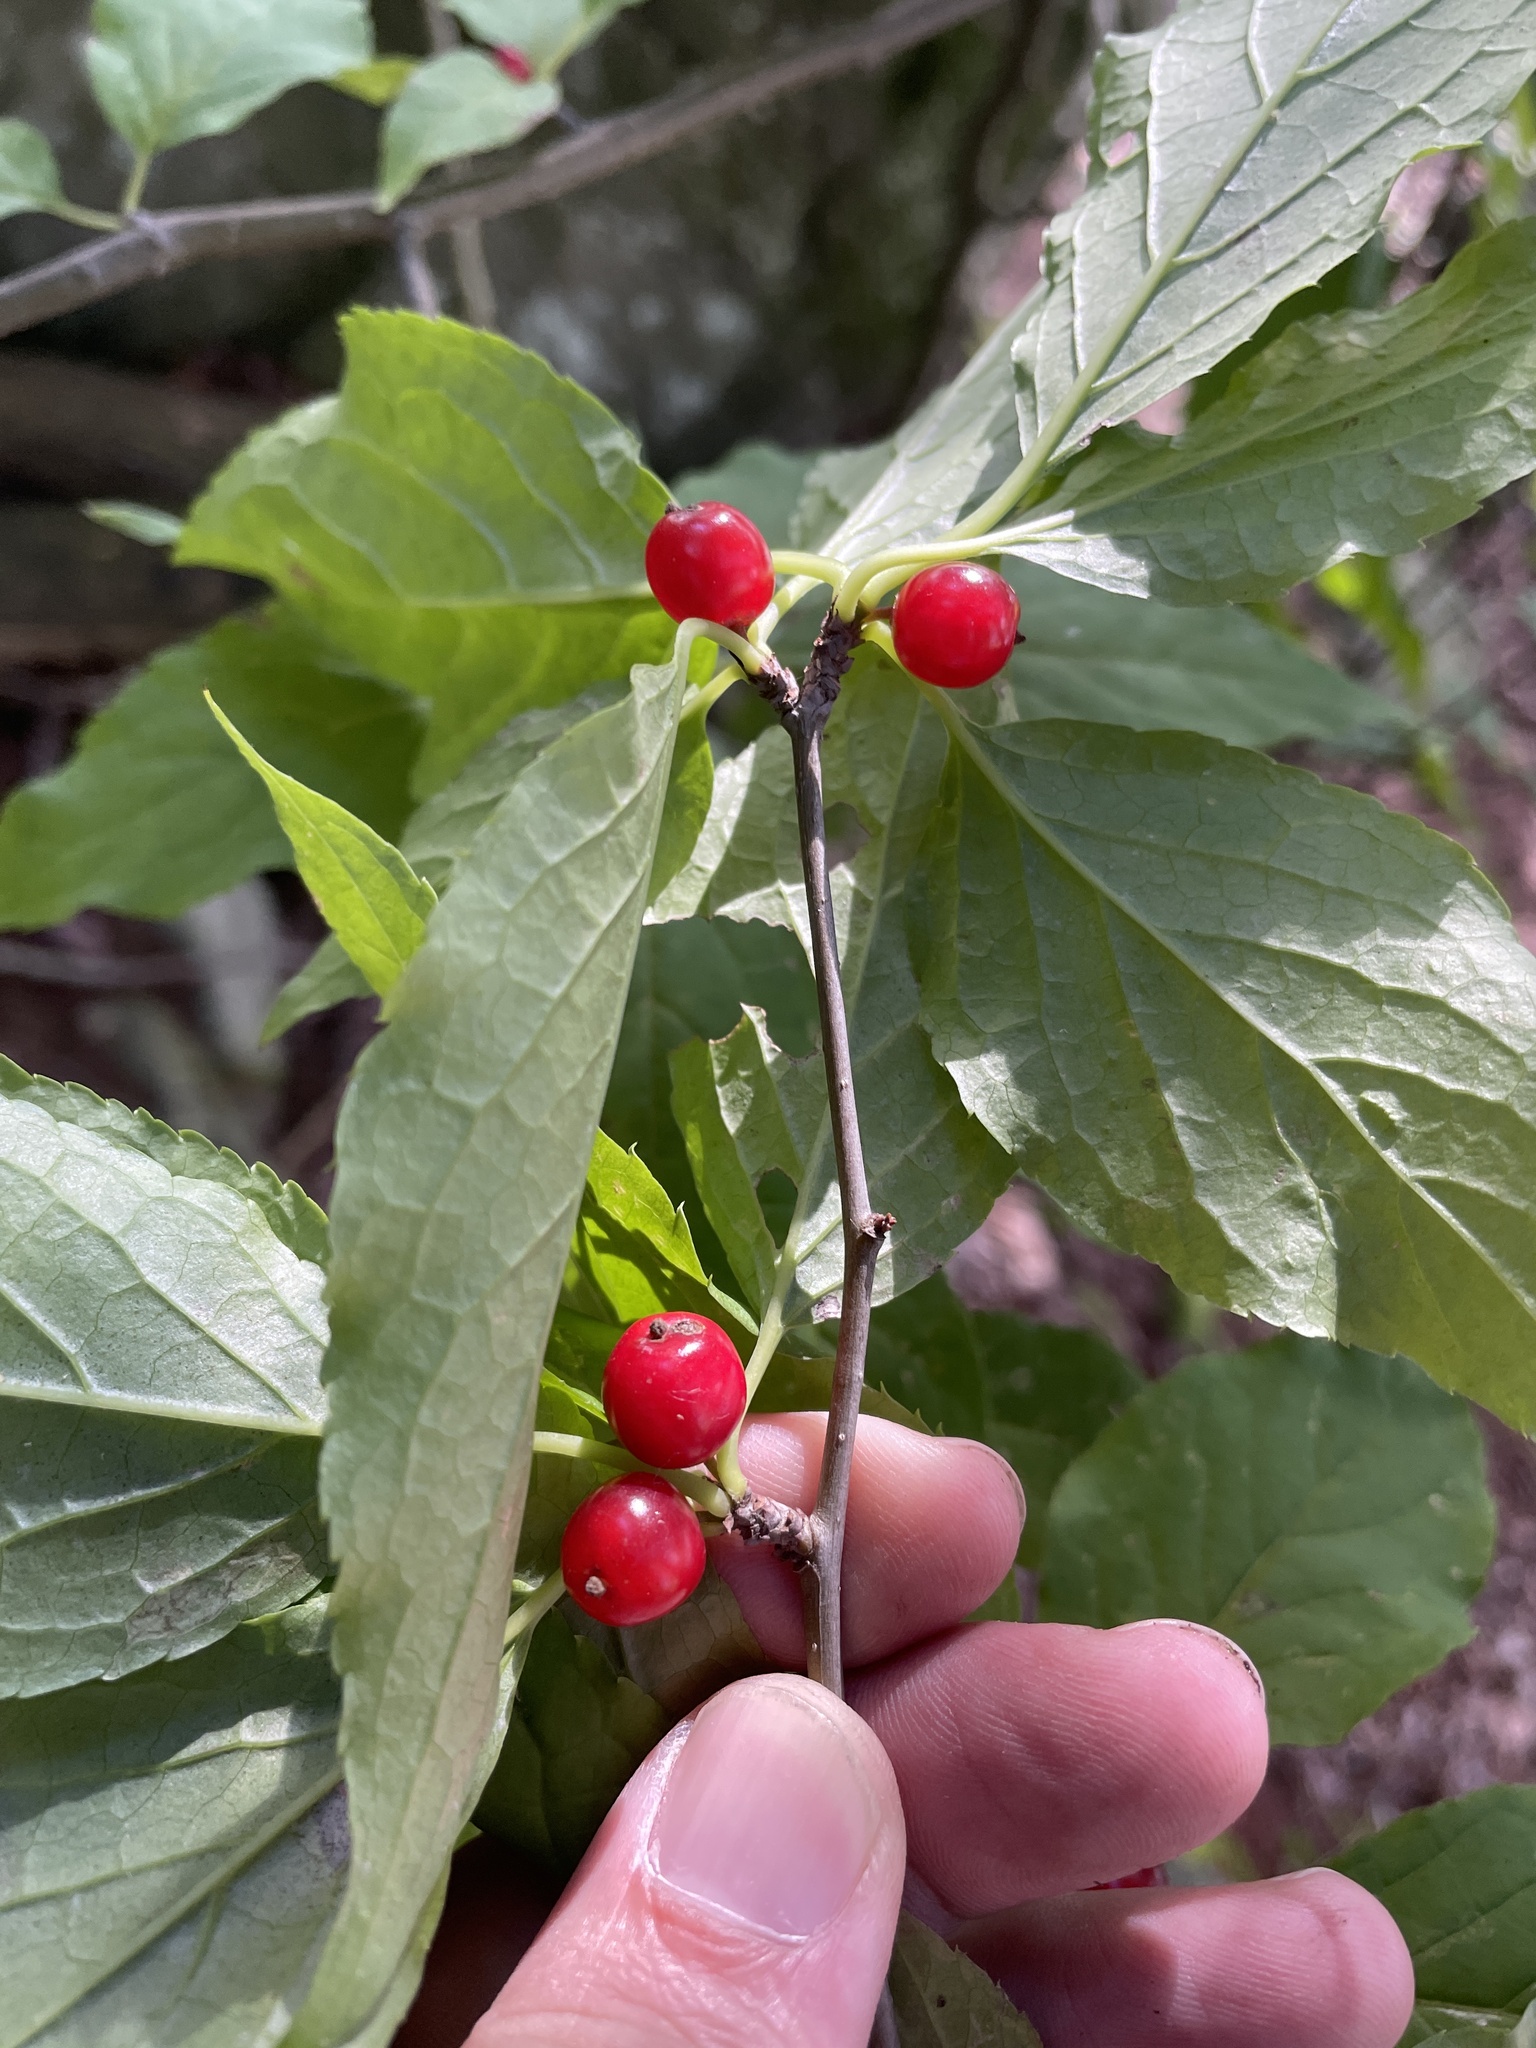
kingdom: Plantae
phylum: Tracheophyta
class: Magnoliopsida
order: Aquifoliales
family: Aquifoliaceae
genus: Ilex
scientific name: Ilex montana
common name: Mountain winterberry
